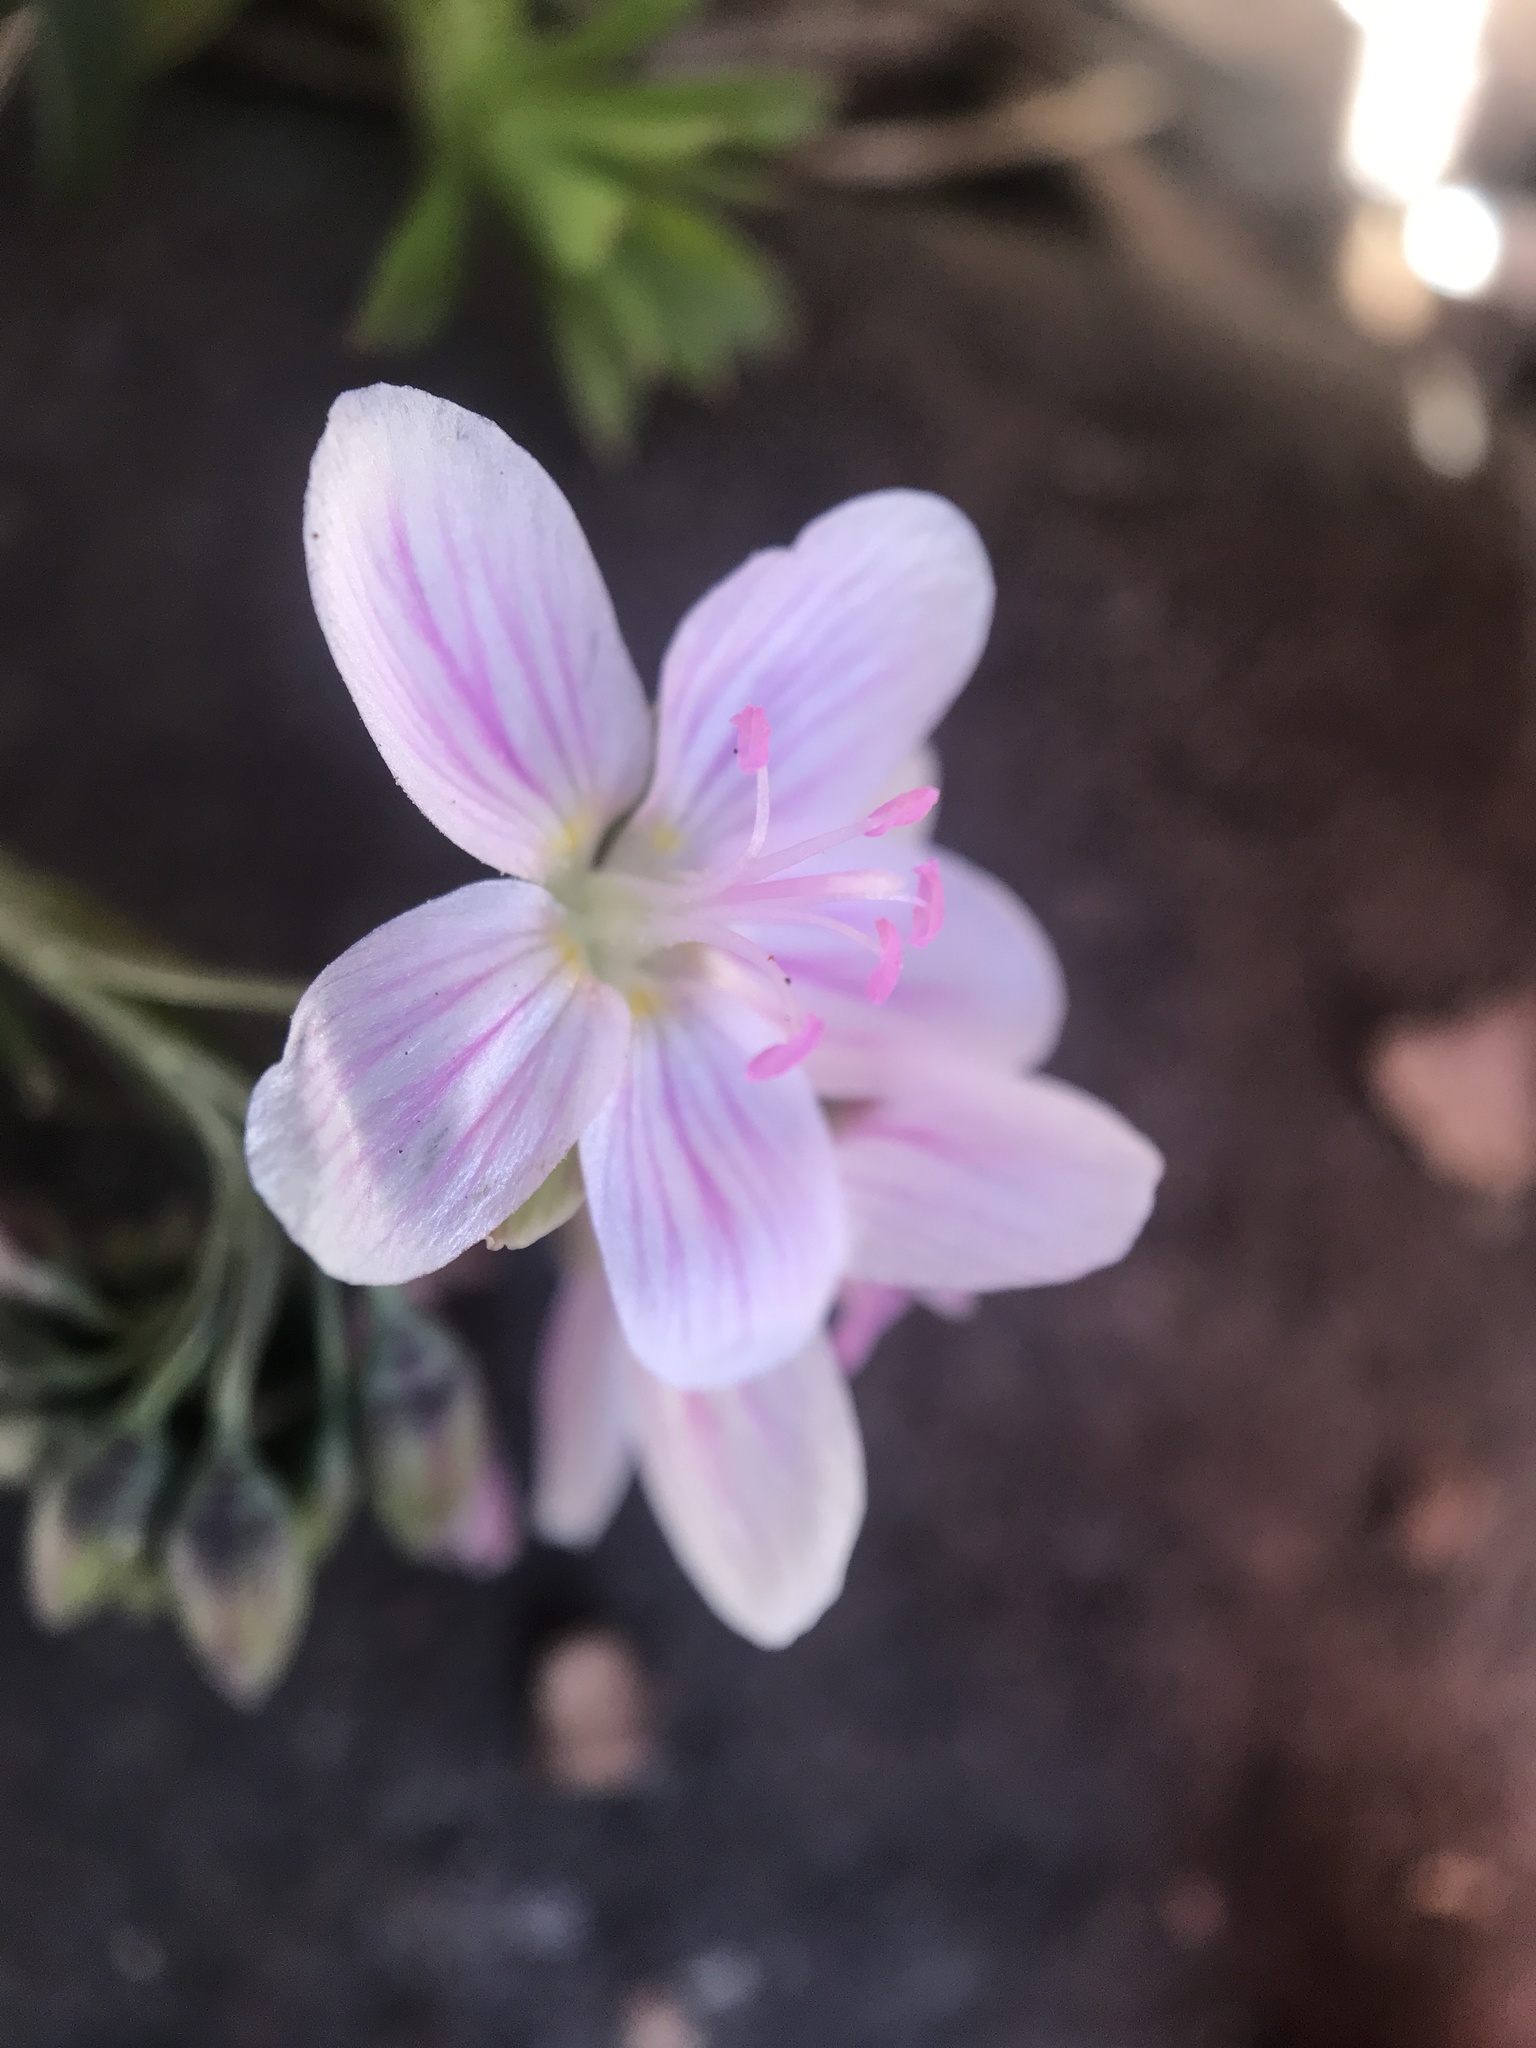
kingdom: Plantae
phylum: Tracheophyta
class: Magnoliopsida
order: Caryophyllales
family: Montiaceae
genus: Claytonia
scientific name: Claytonia virginica
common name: Virginia springbeauty
